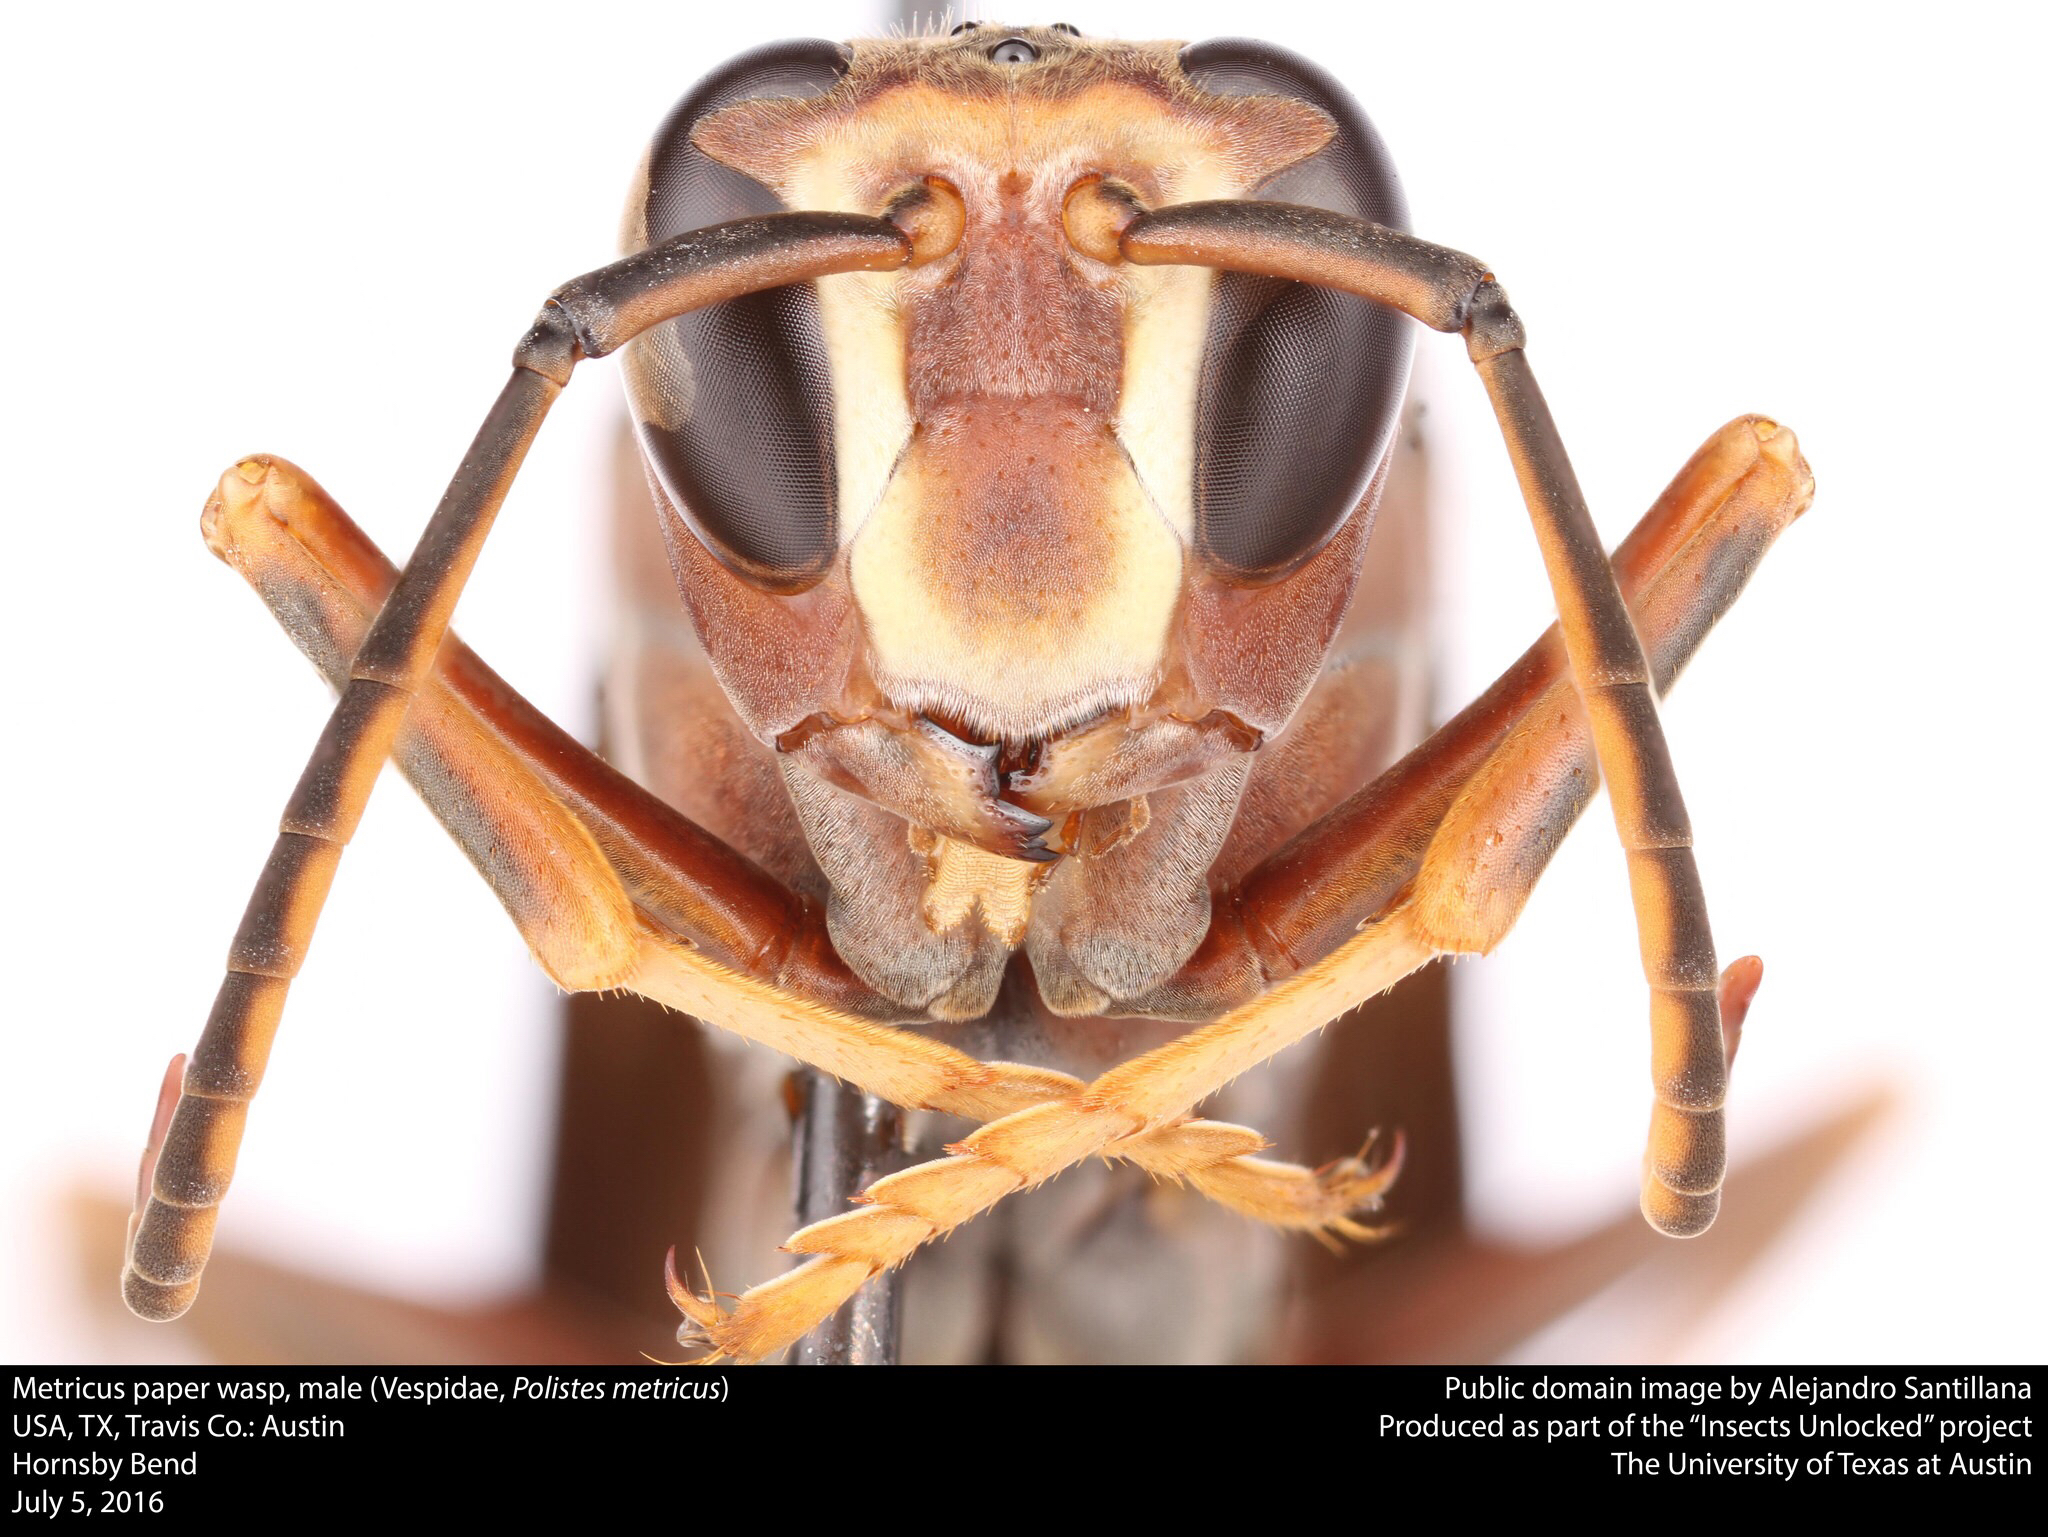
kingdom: Animalia
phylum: Arthropoda
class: Insecta
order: Hymenoptera
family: Eumenidae
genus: Polistes
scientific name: Polistes metricus
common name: Metric paper wasp
